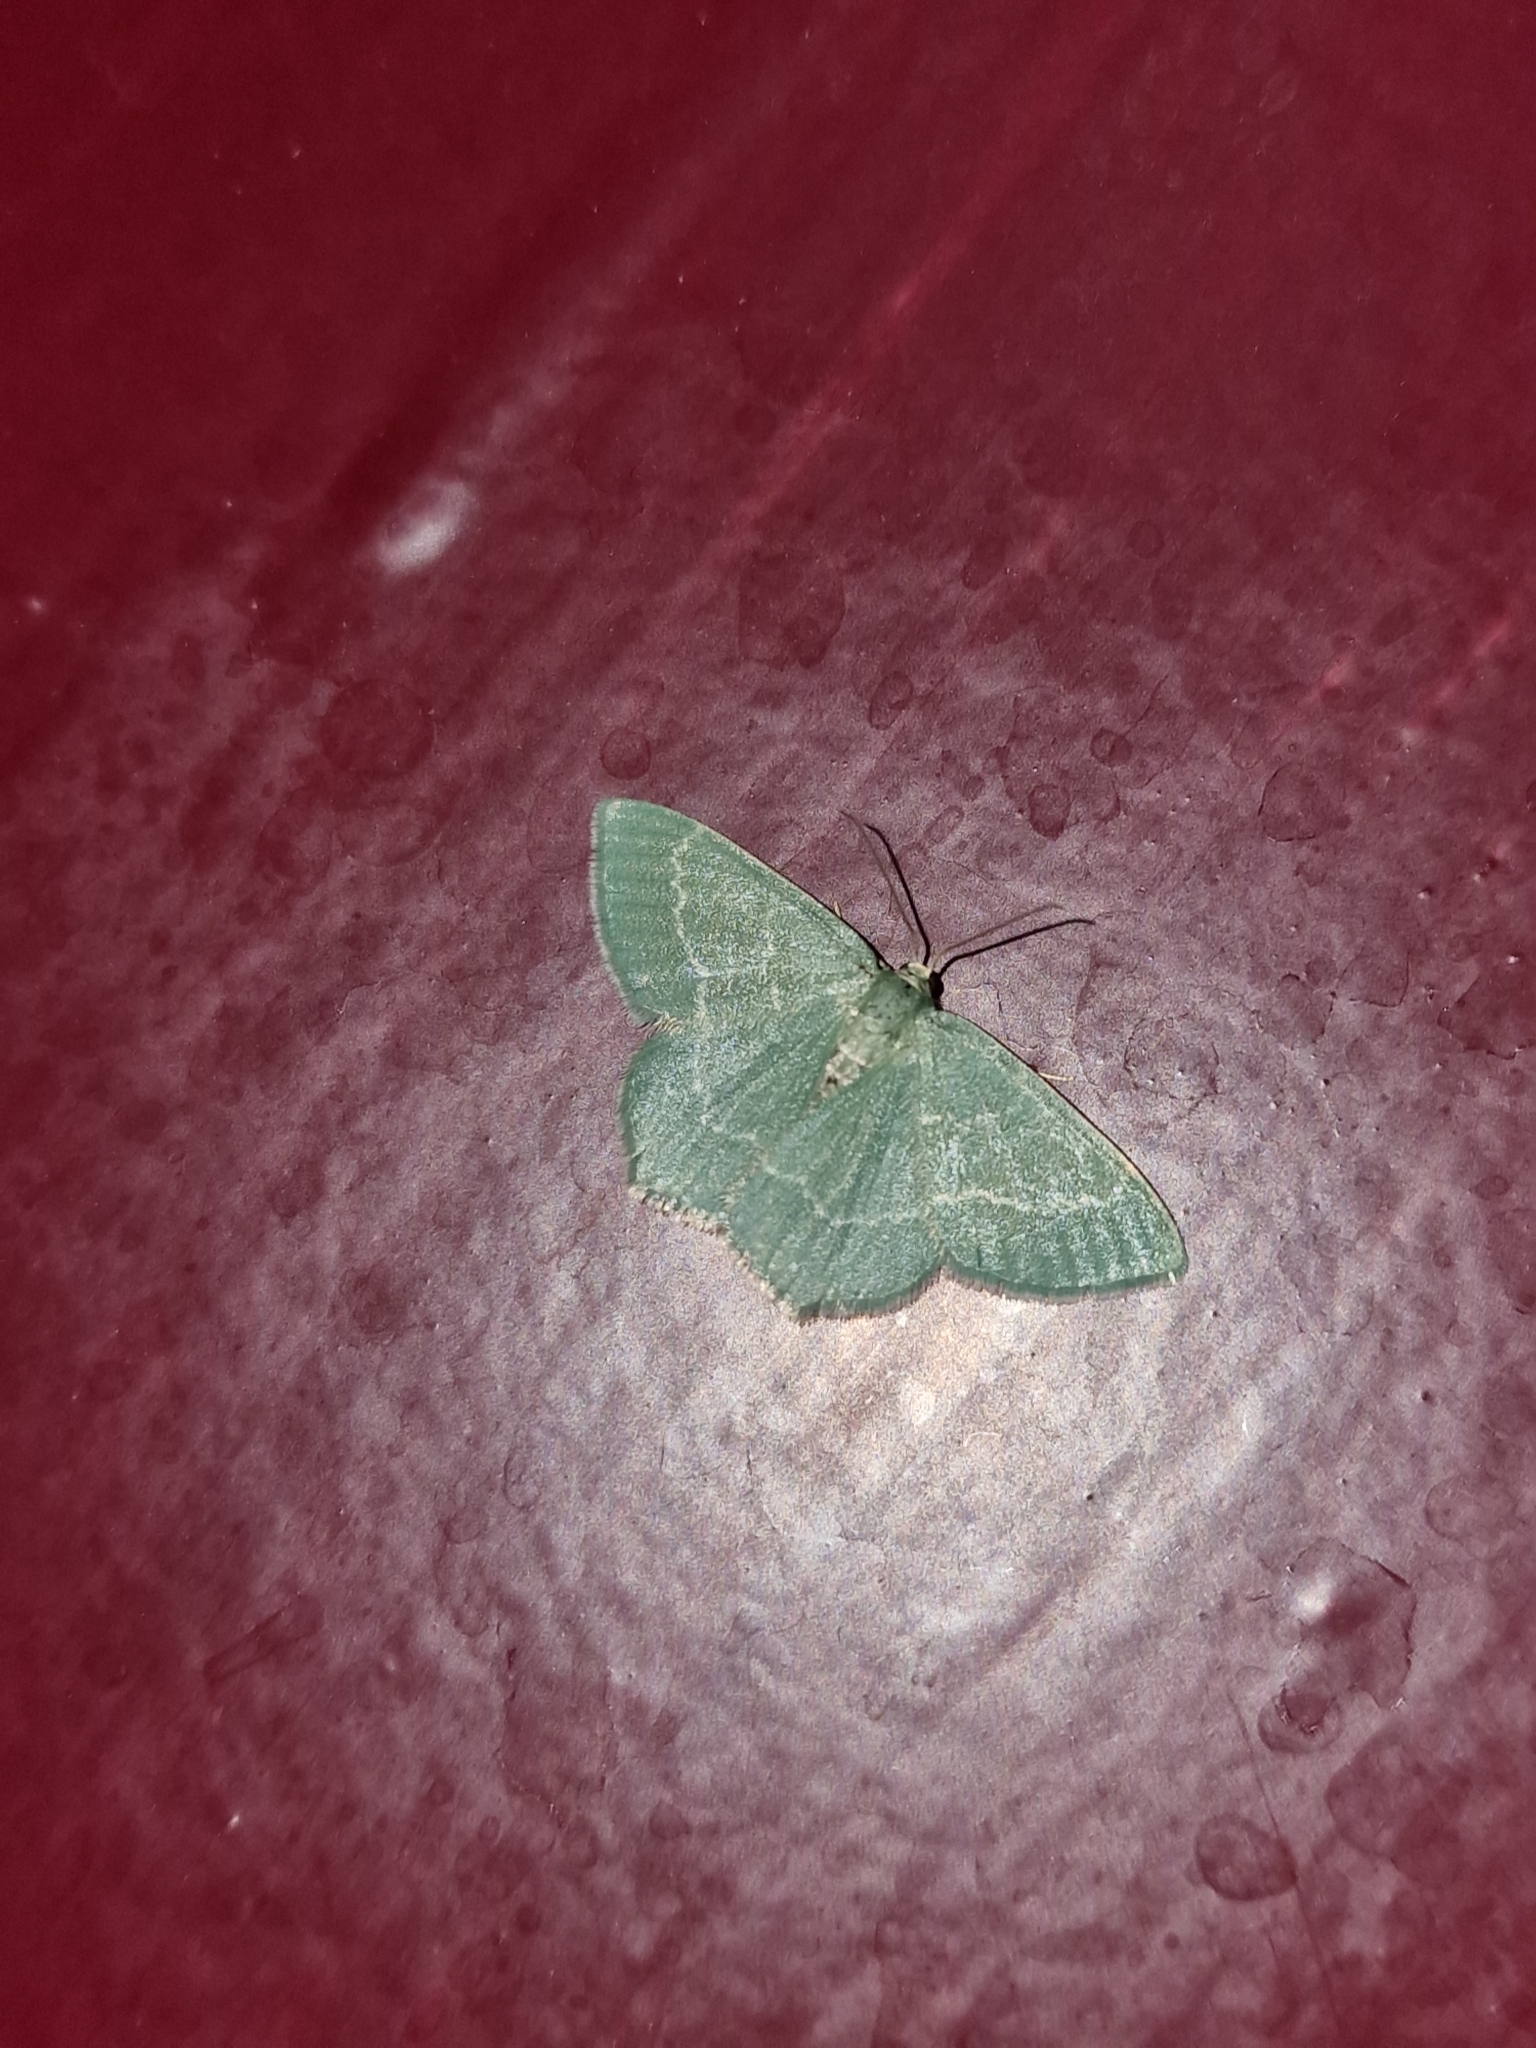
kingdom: Animalia
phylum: Arthropoda
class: Insecta
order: Lepidoptera
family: Geometridae
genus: Chlorissa
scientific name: Chlorissa etruscaria
